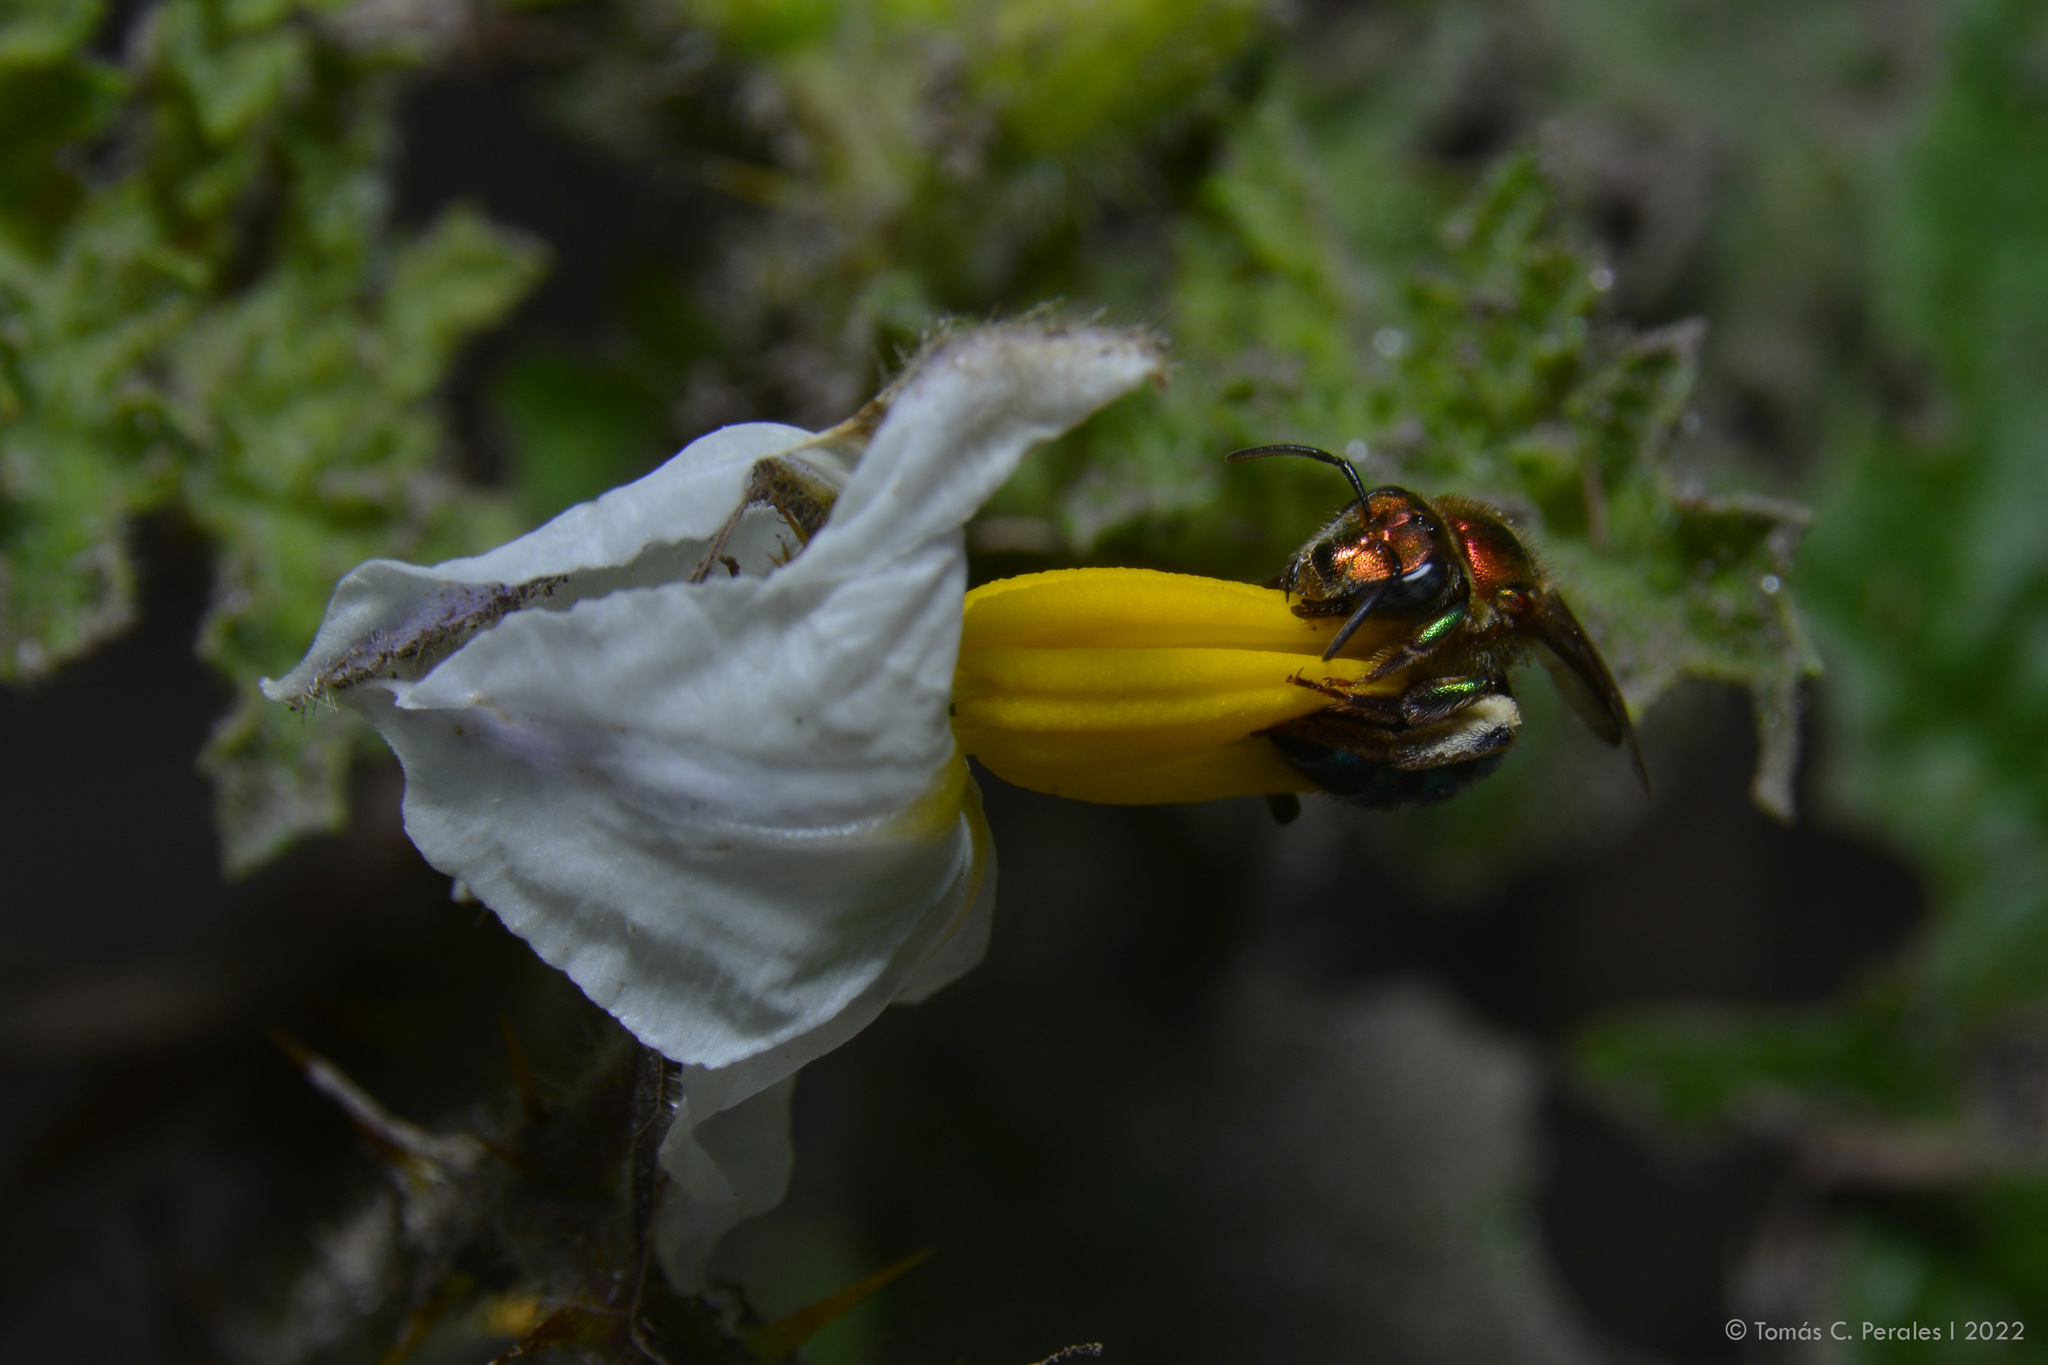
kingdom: Animalia
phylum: Arthropoda
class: Insecta
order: Hymenoptera
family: Halictidae
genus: Augochloropsis
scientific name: Augochloropsis tupacamaru
